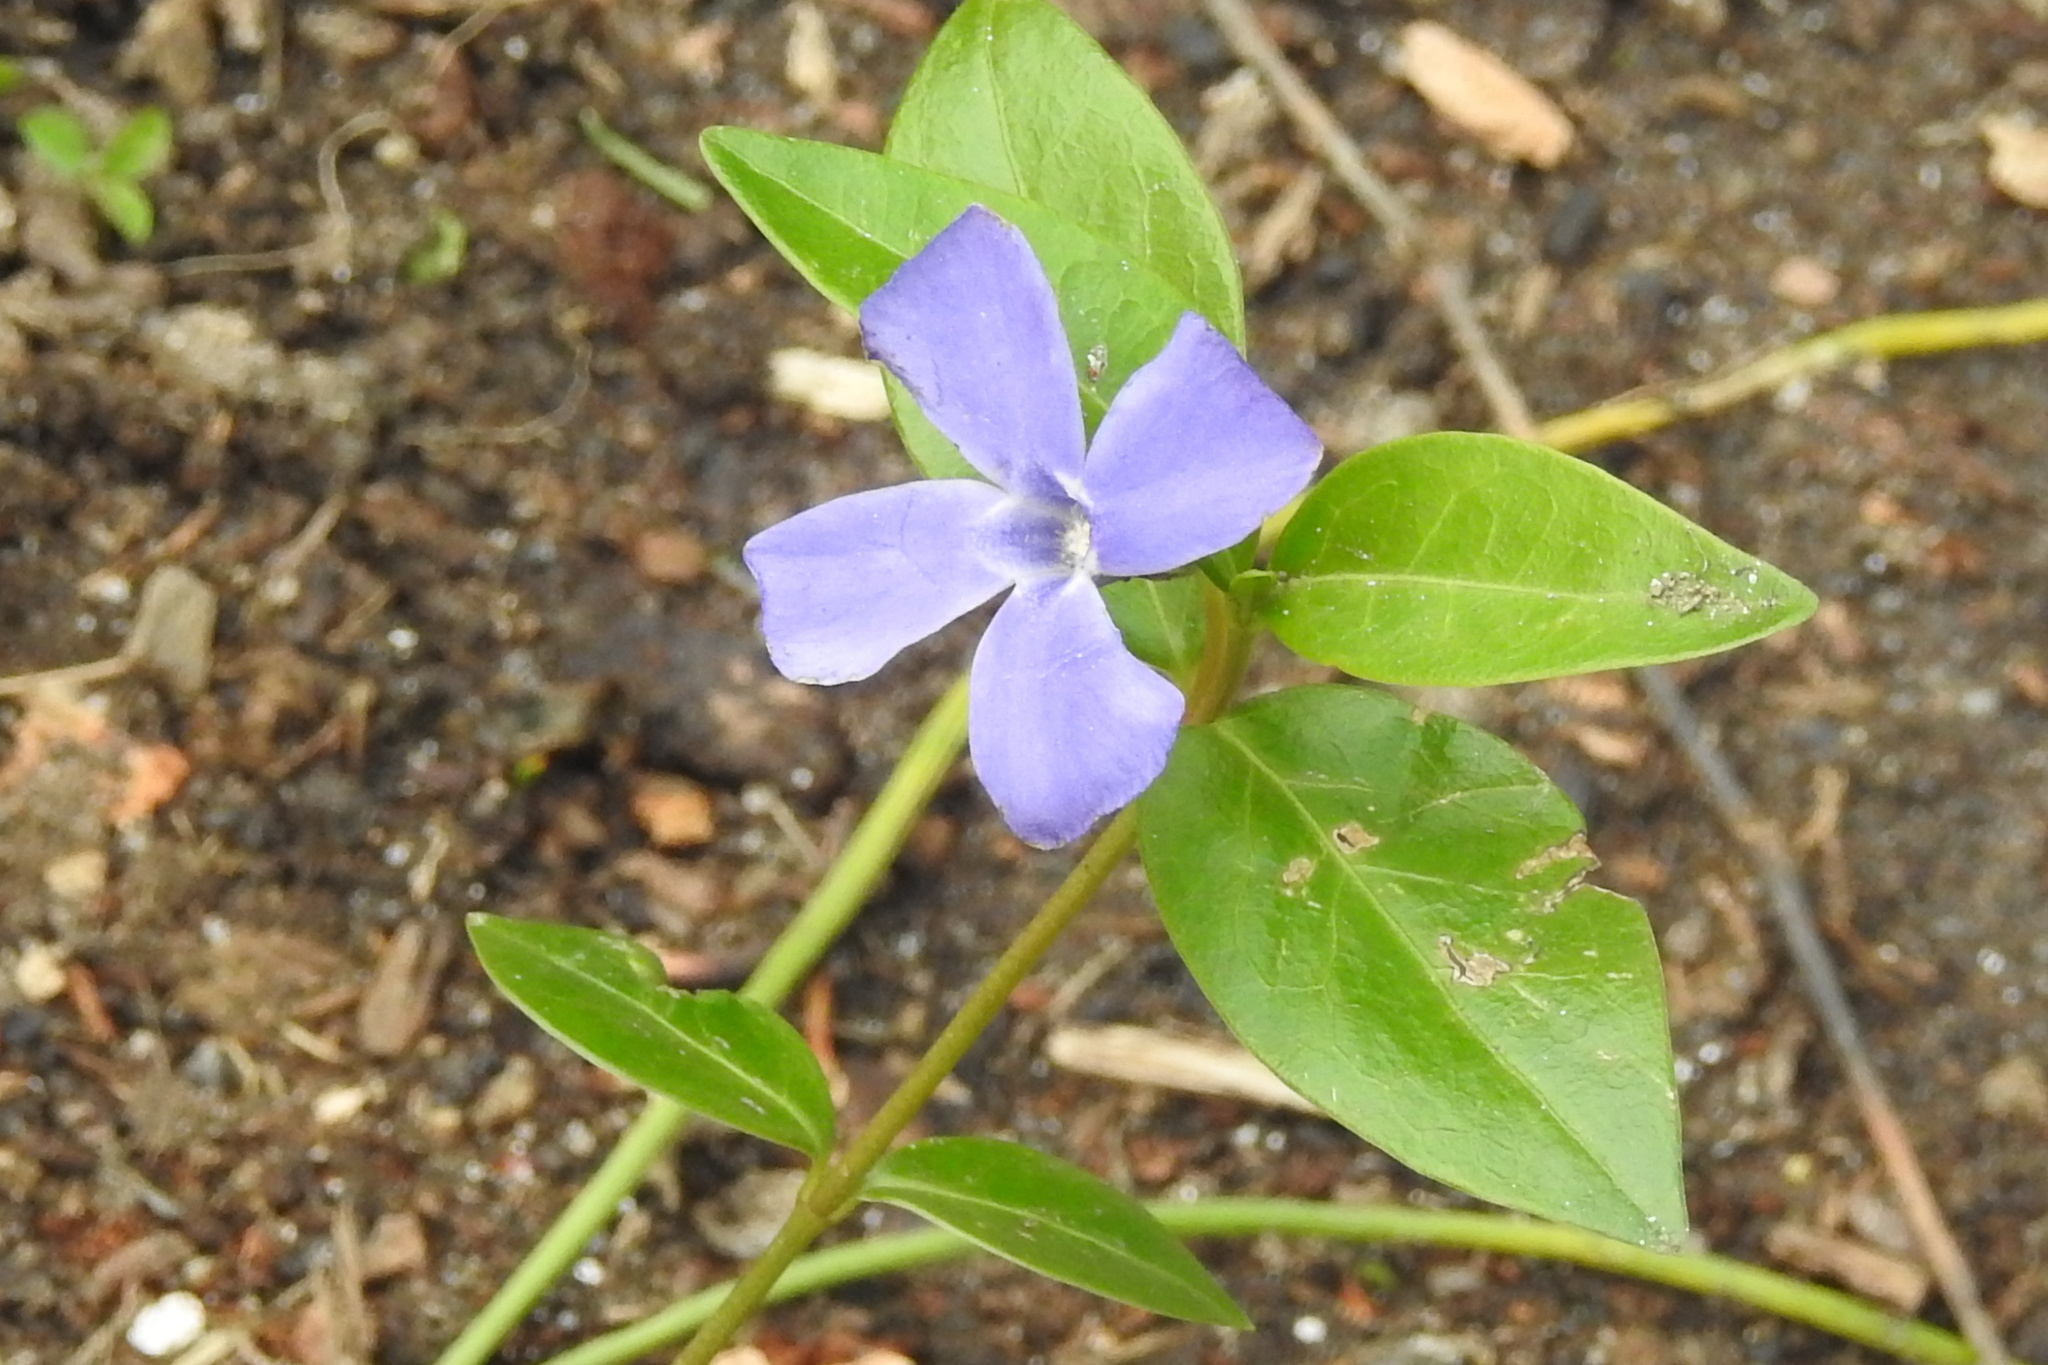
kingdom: Plantae
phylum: Tracheophyta
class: Magnoliopsida
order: Gentianales
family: Apocynaceae
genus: Vinca
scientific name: Vinca minor
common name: Lesser periwinkle
